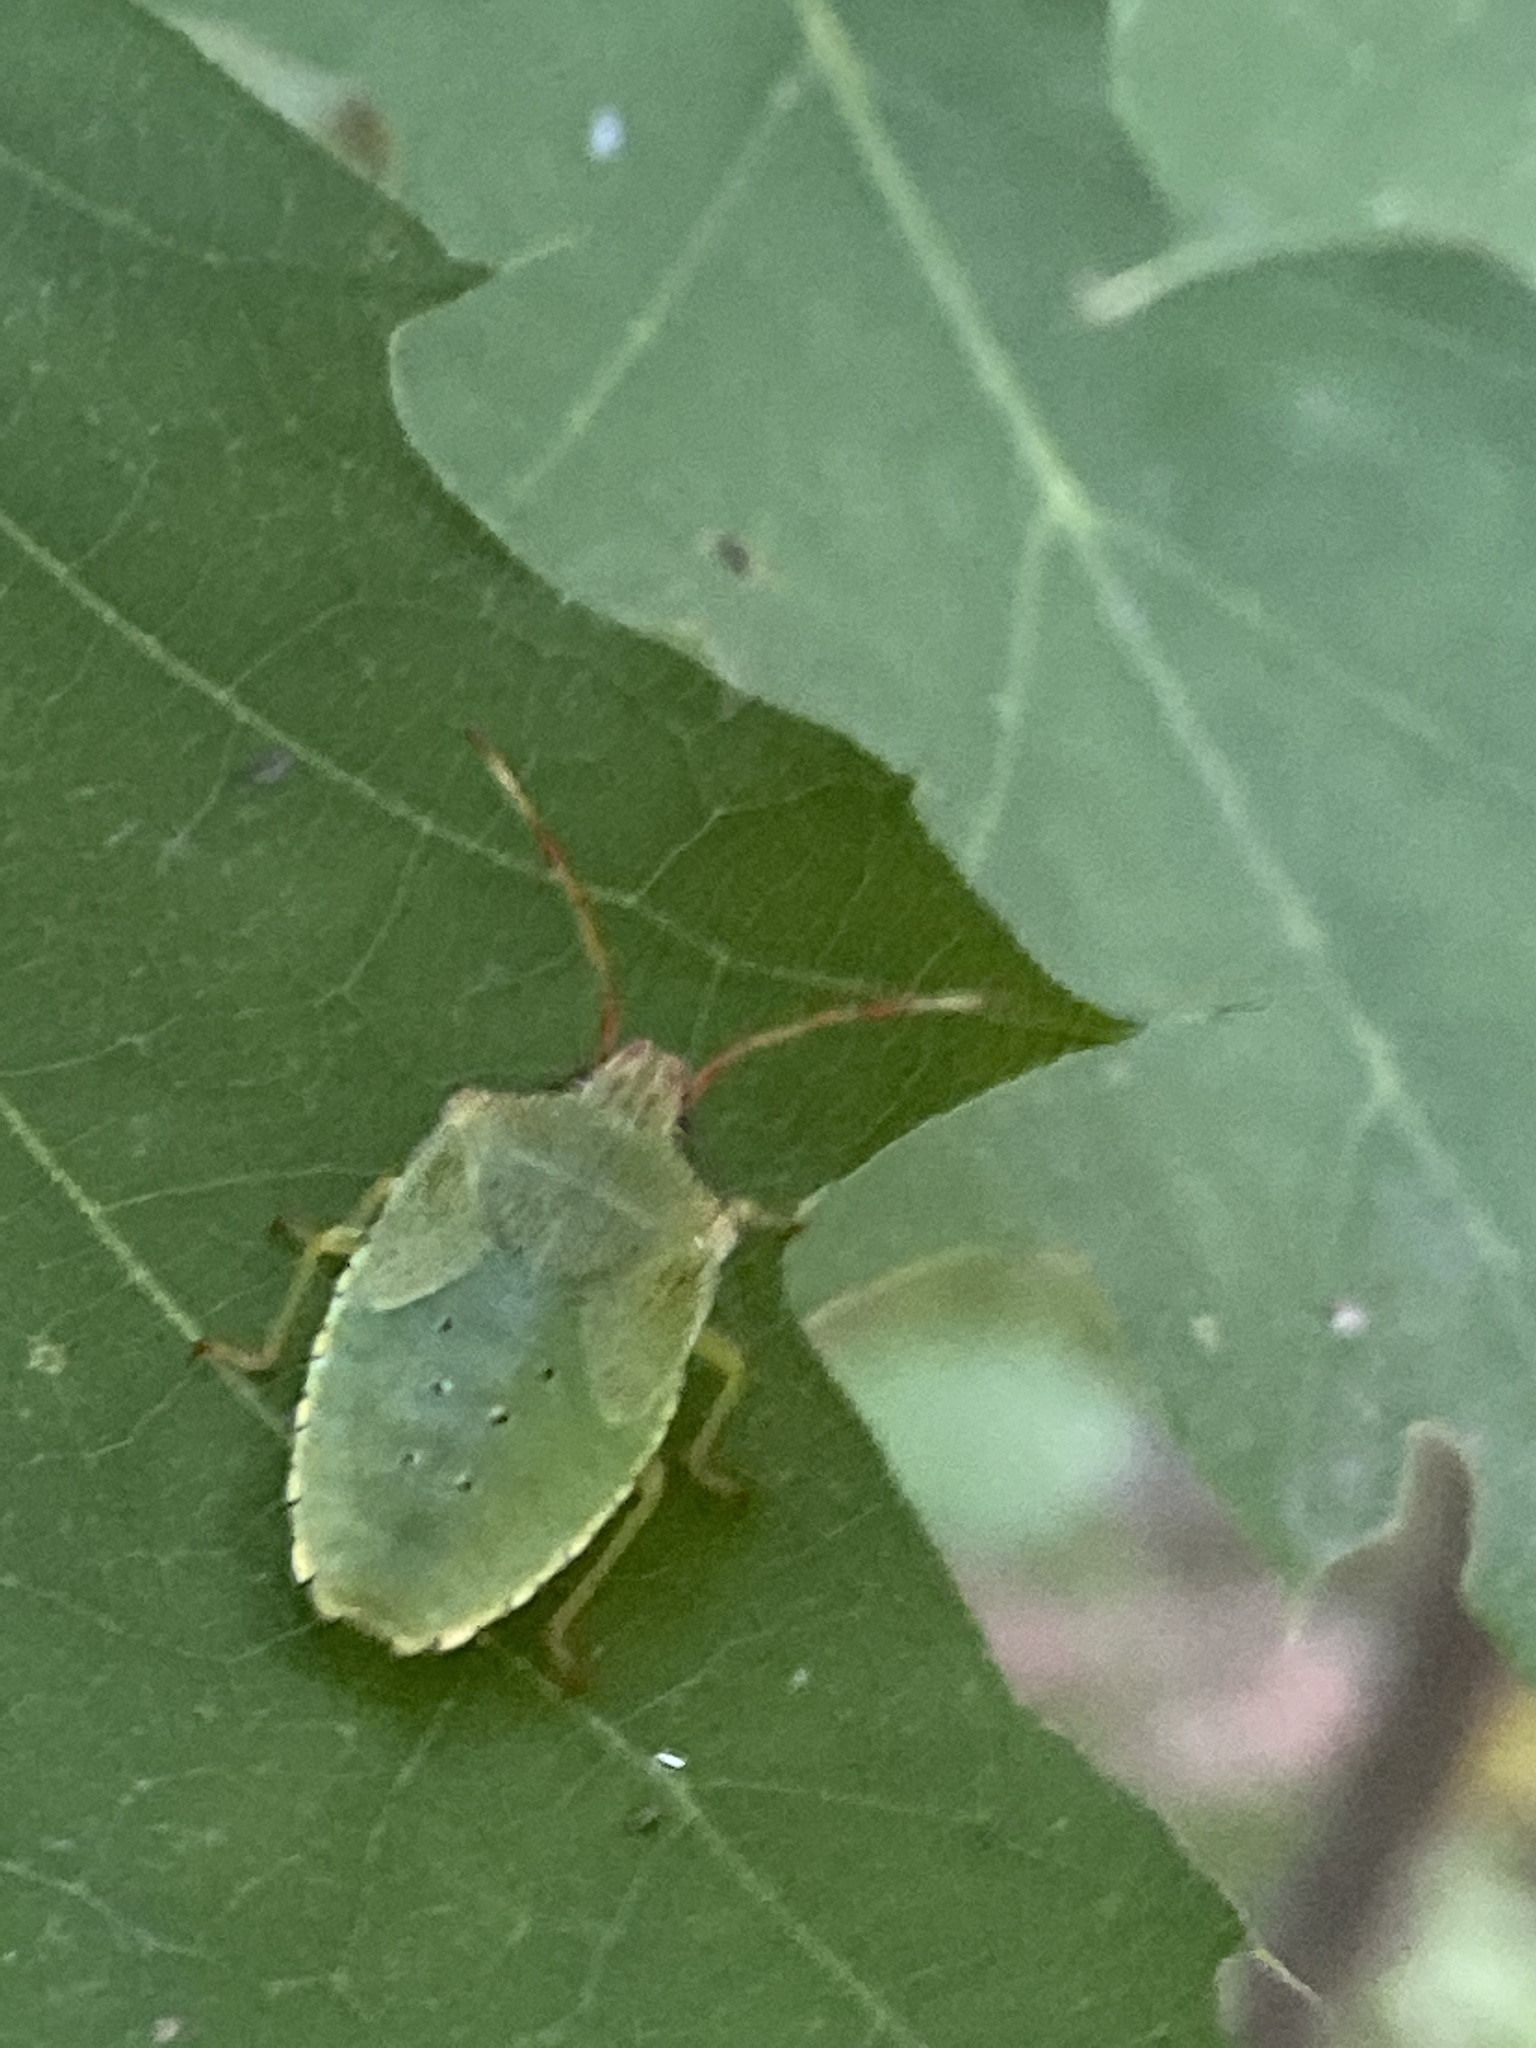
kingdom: Animalia
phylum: Arthropoda
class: Insecta
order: Hemiptera
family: Acanthosomatidae
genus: Acanthosoma
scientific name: Acanthosoma haemorrhoidale
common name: Hawthorn shieldbug
